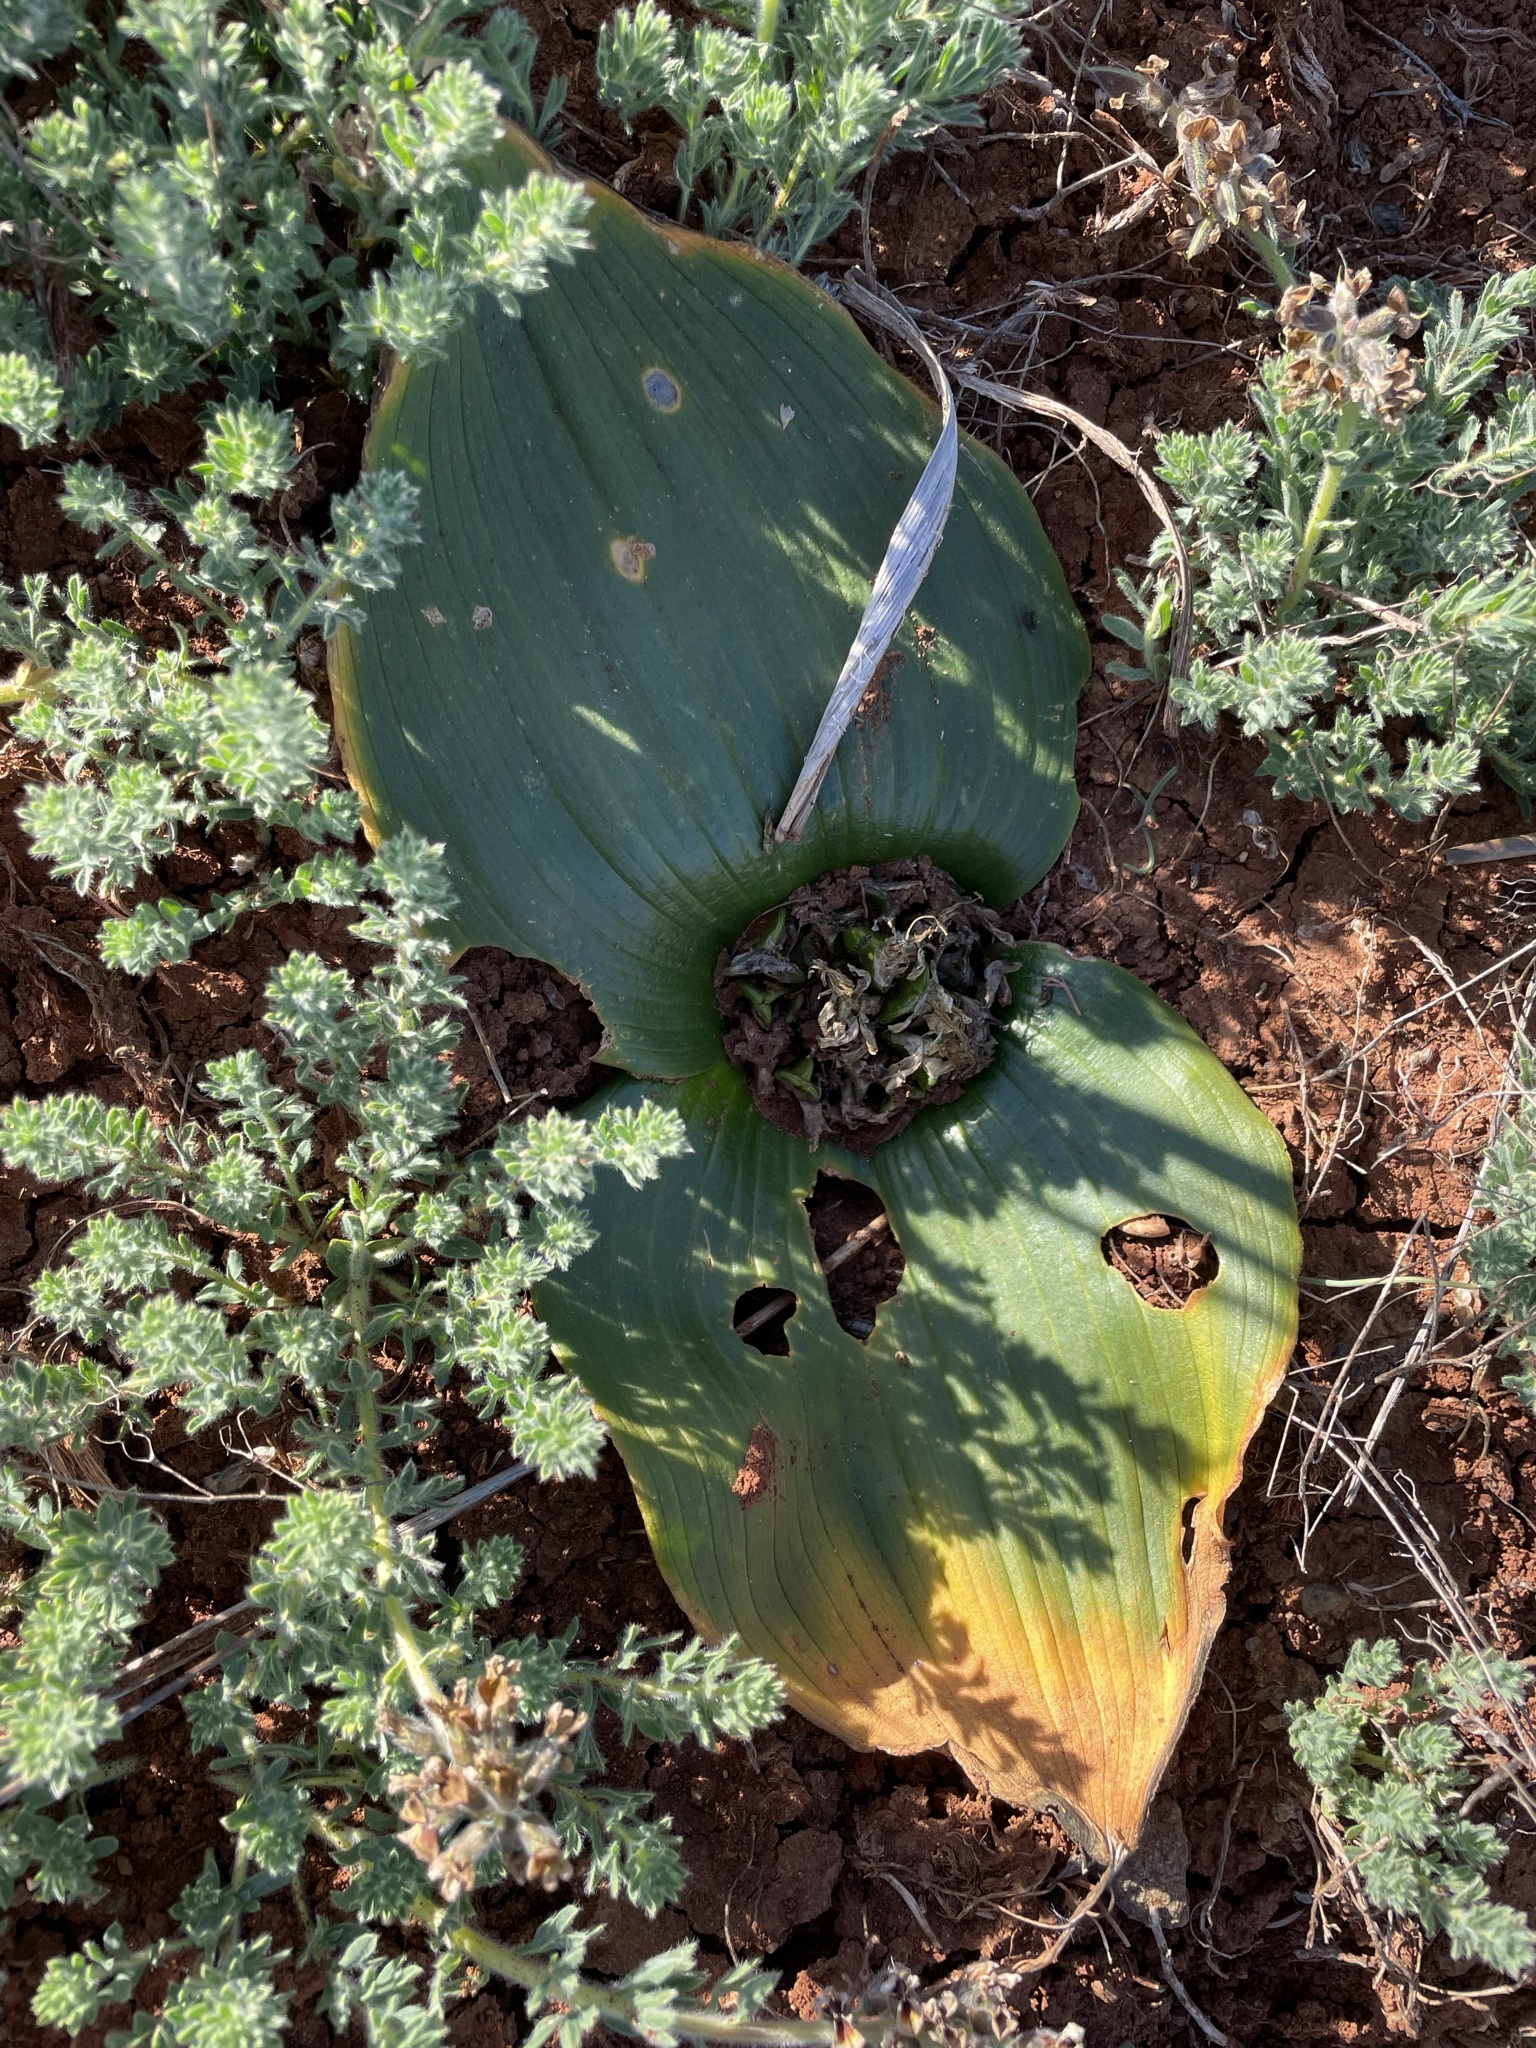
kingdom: Plantae
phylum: Tracheophyta
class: Liliopsida
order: Asparagales
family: Asparagaceae
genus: Daubenya
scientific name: Daubenya capensis
